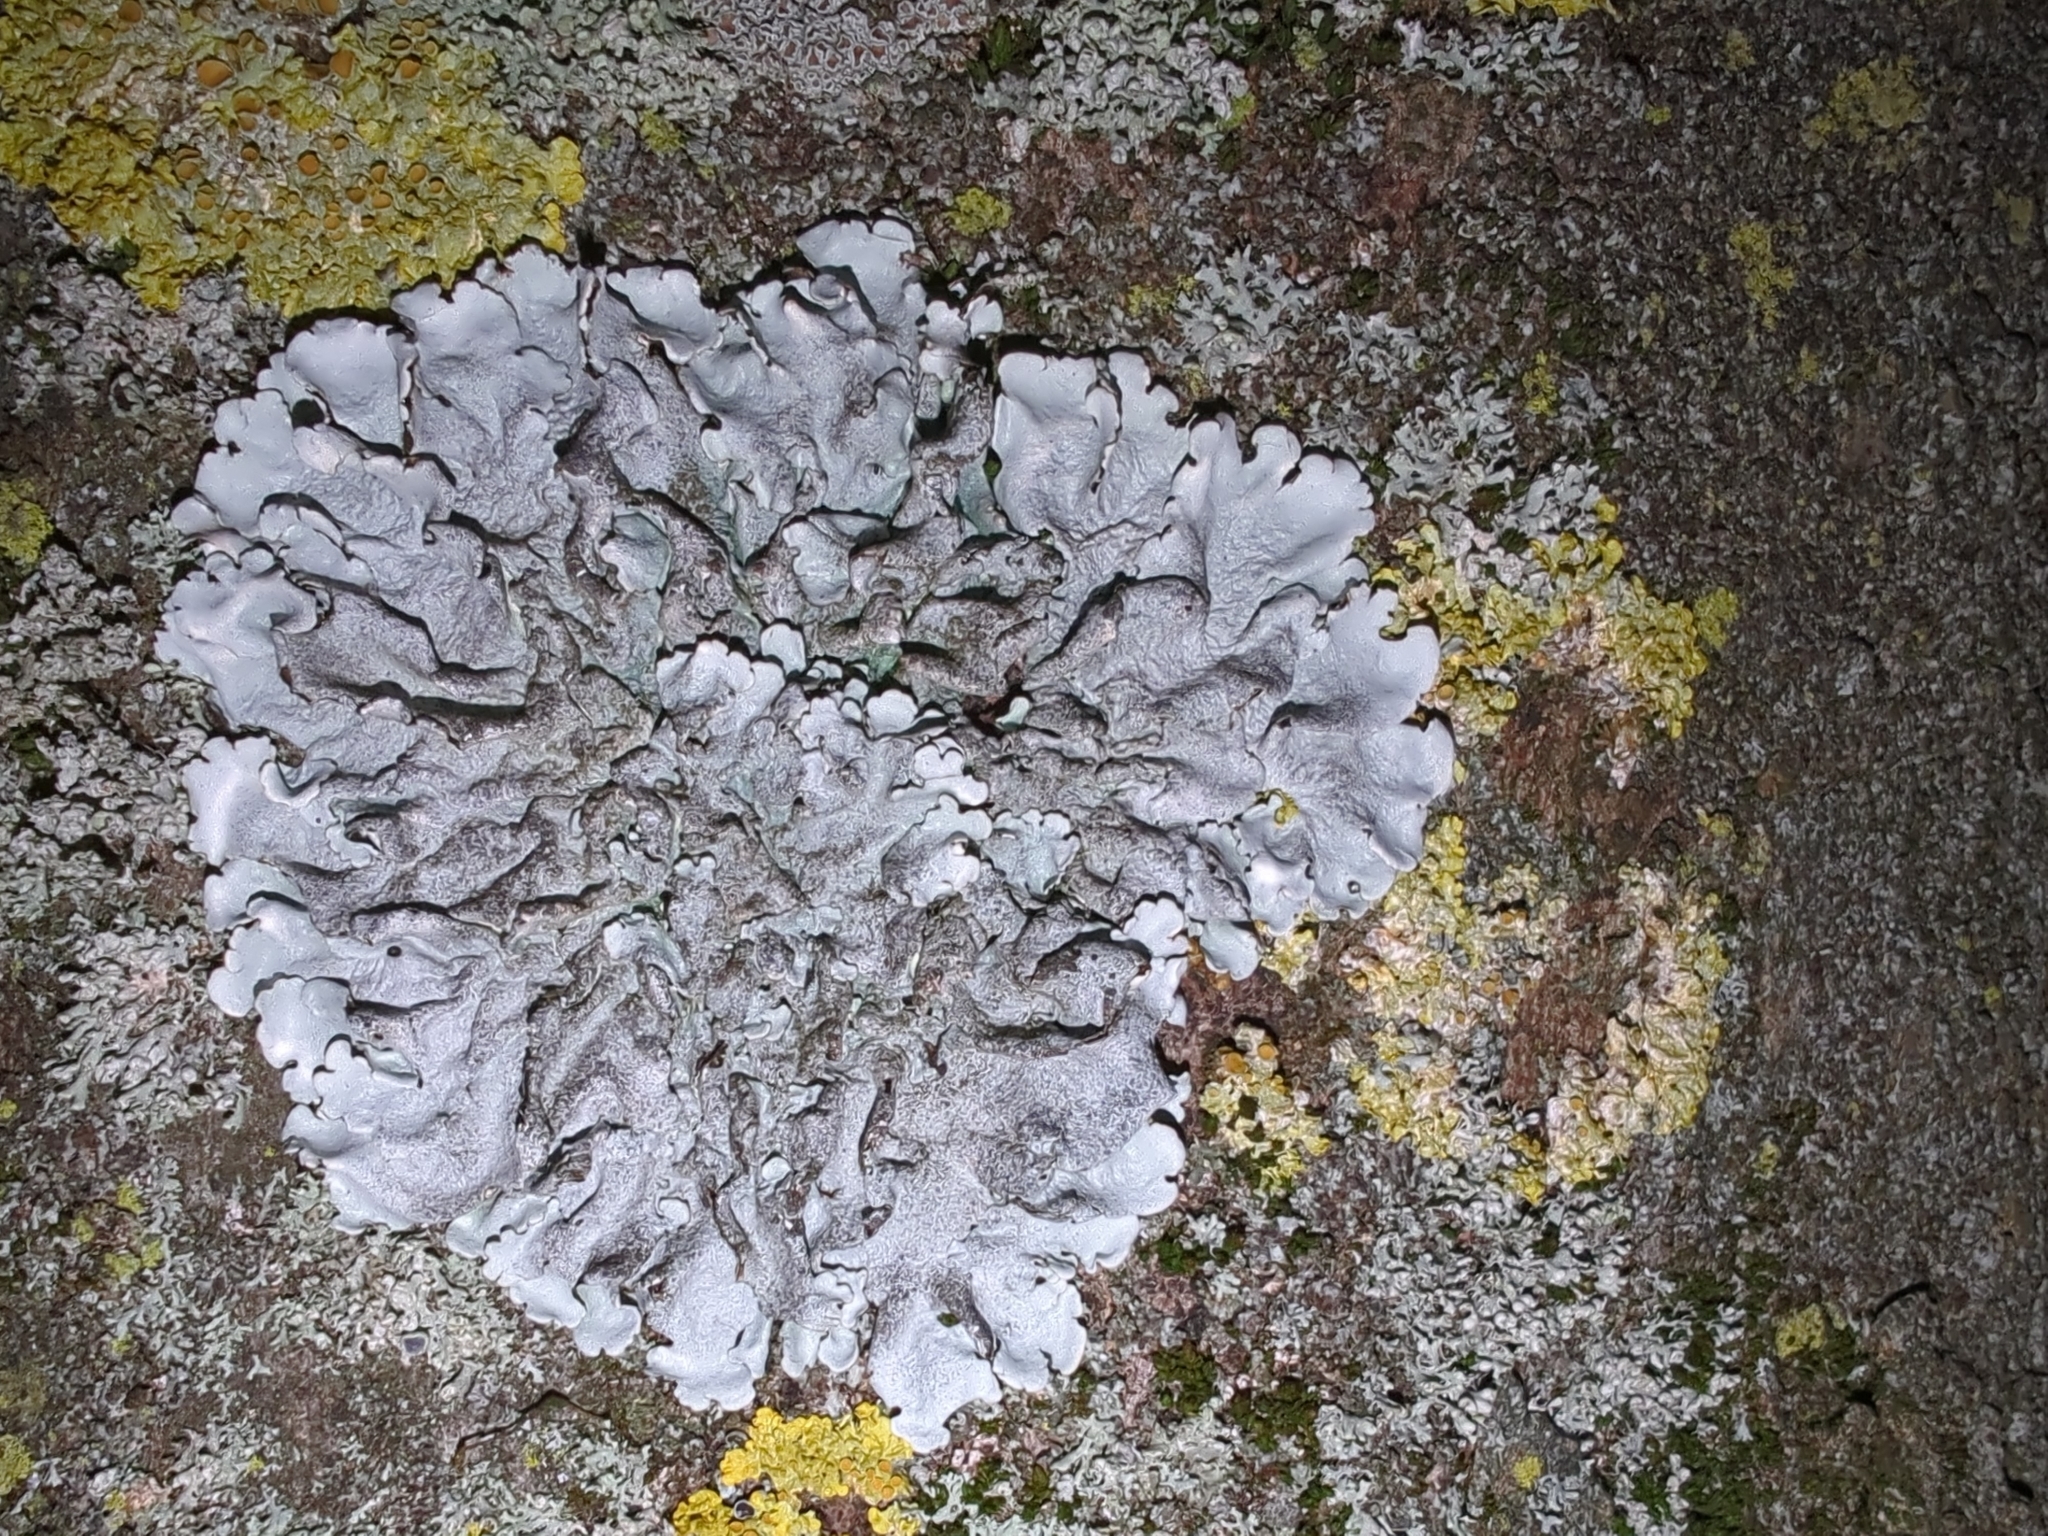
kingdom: Fungi
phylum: Ascomycota
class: Lecanoromycetes
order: Lecanorales
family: Parmeliaceae
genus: Parmelina
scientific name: Parmelina tiliacea
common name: Linden shield lichen
